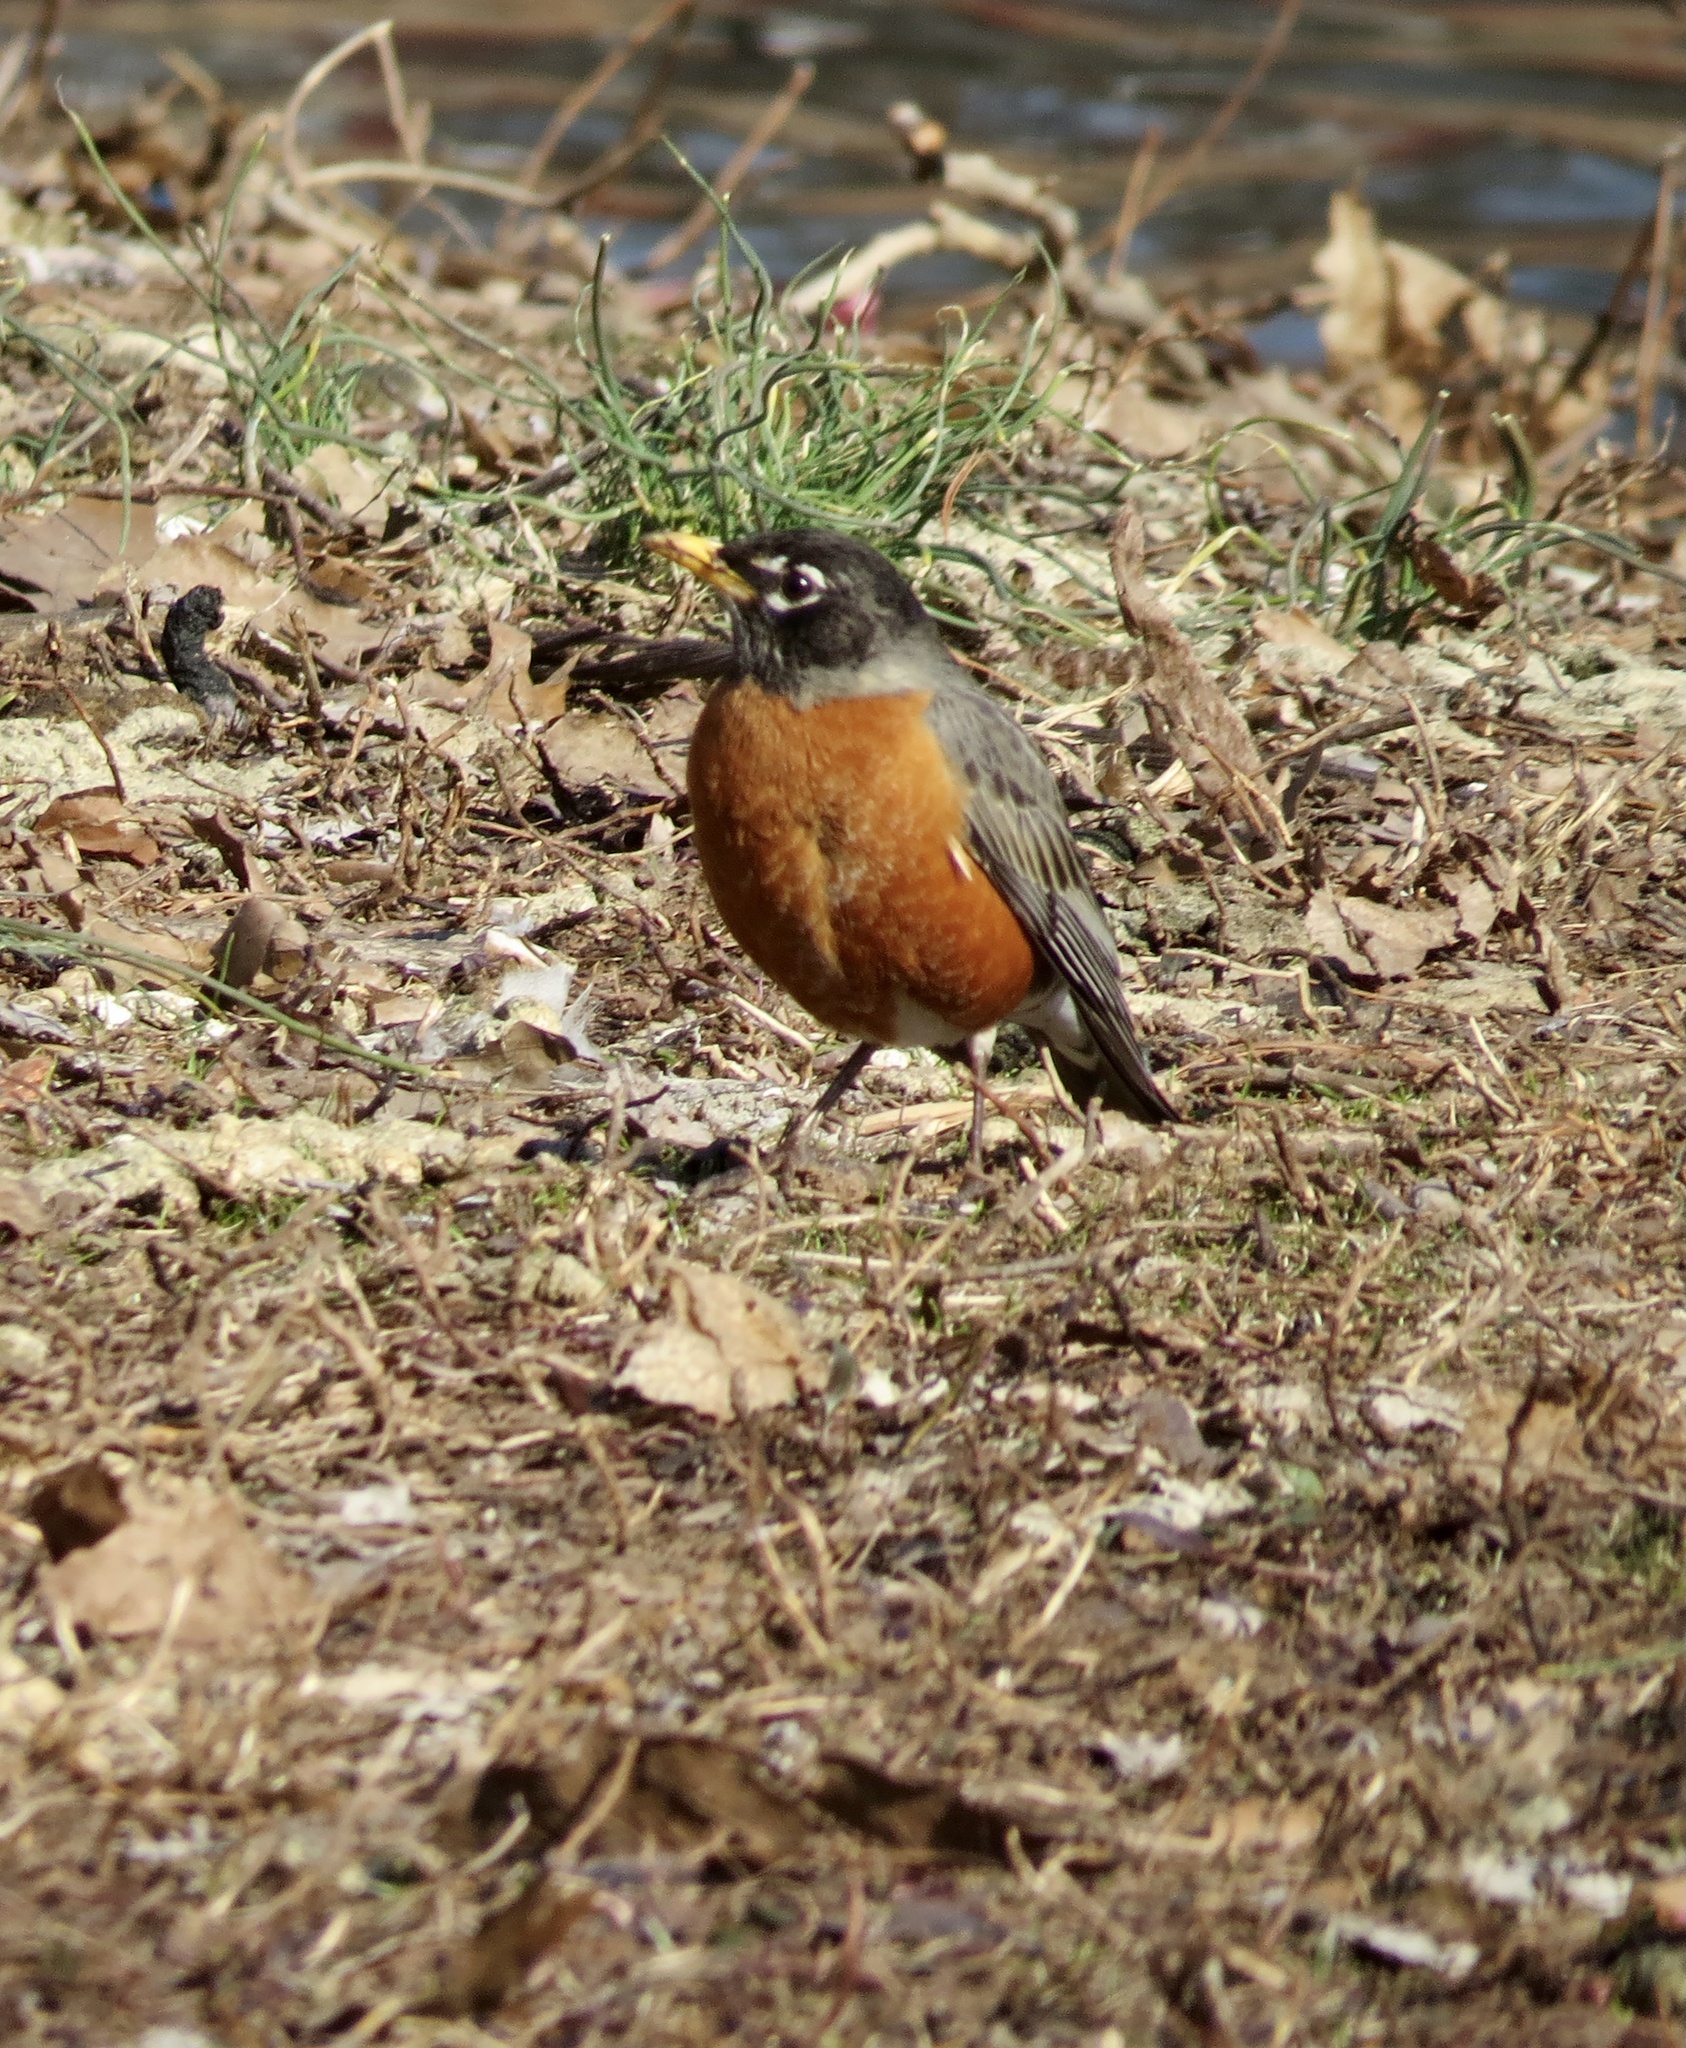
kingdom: Animalia
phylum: Chordata
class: Aves
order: Passeriformes
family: Turdidae
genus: Turdus
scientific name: Turdus migratorius
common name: American robin
